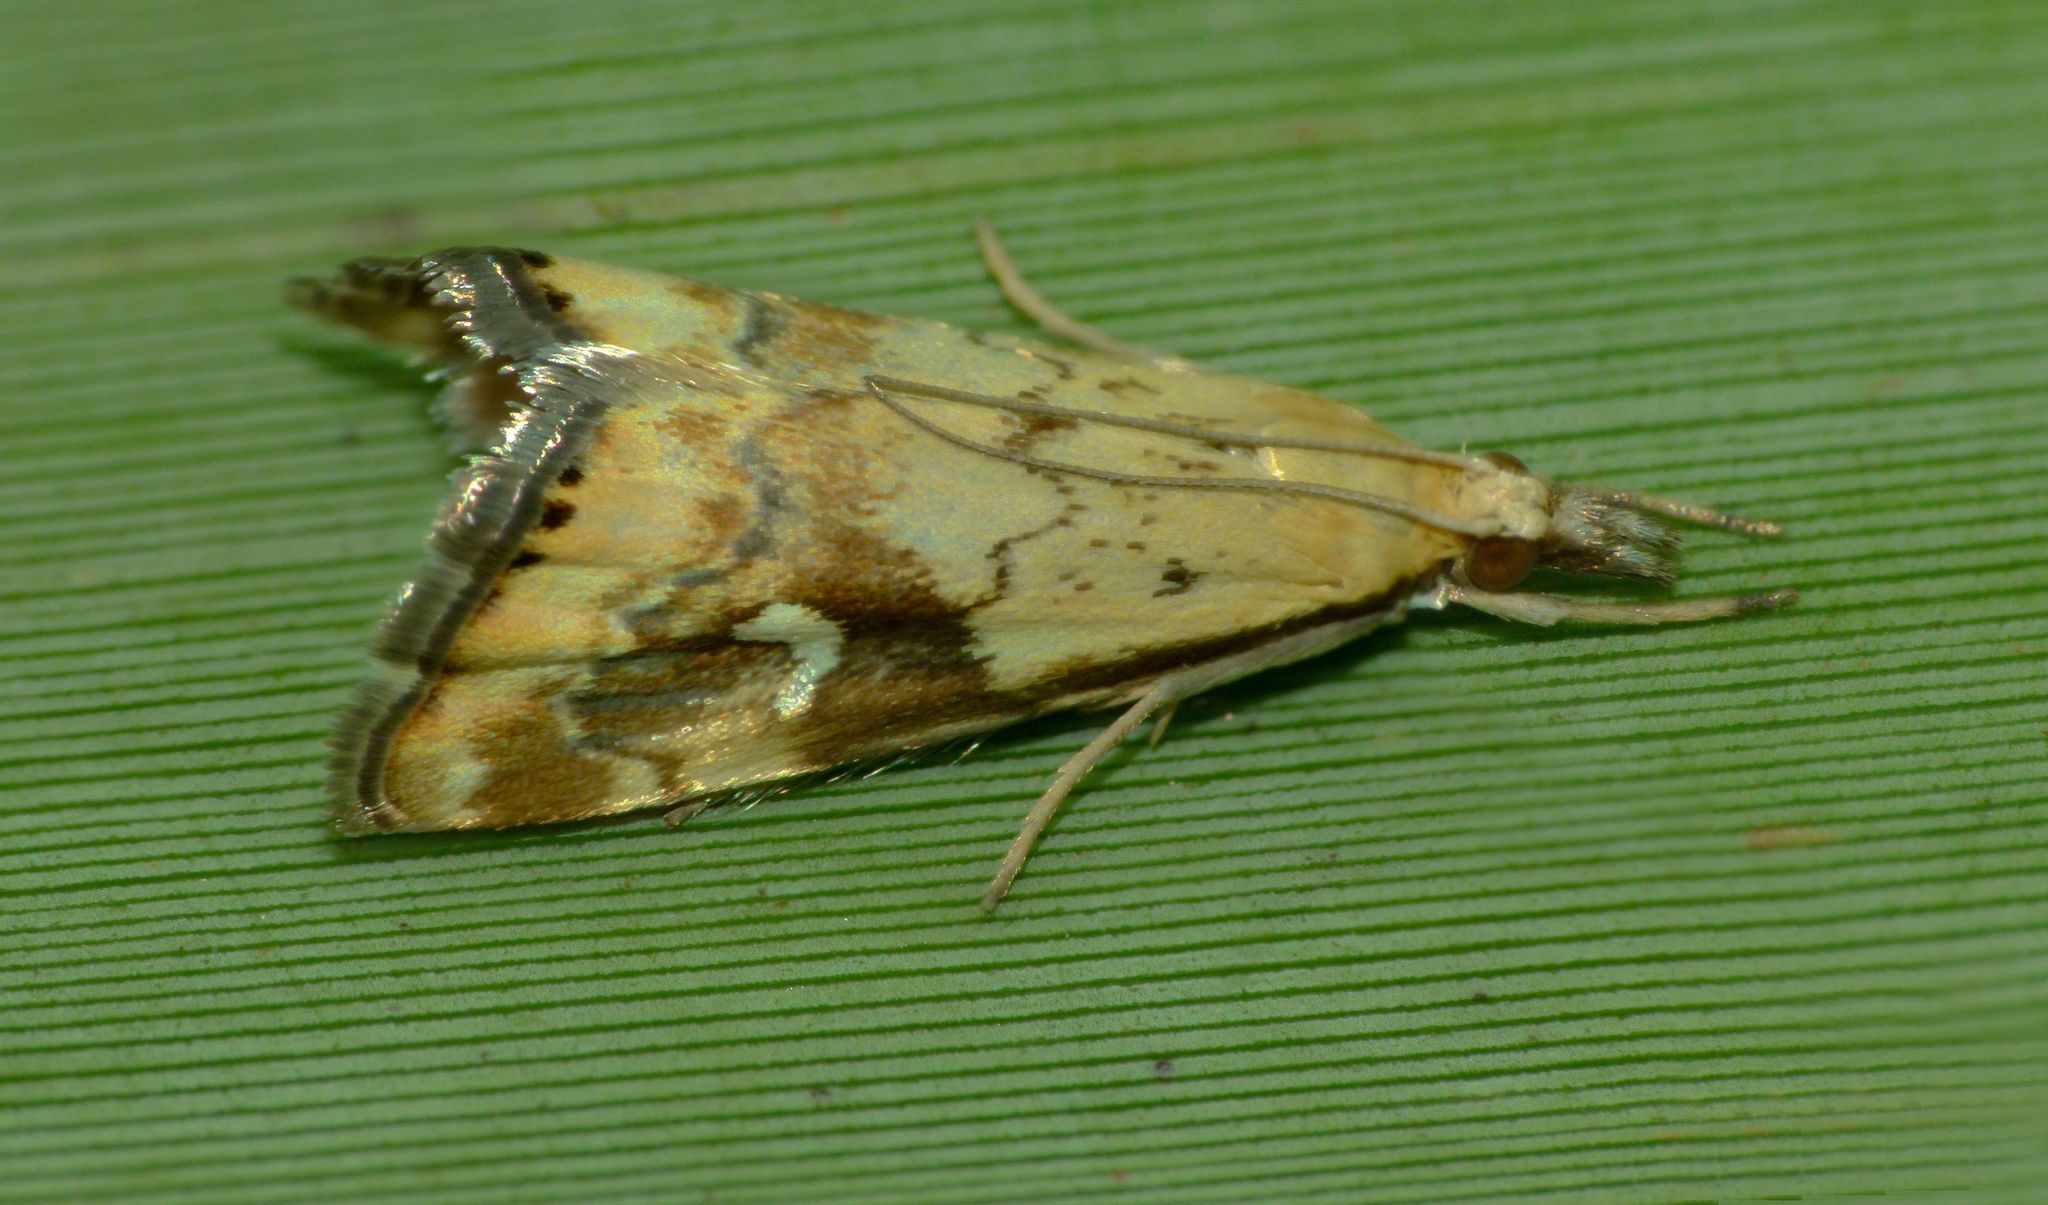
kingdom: Animalia
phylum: Arthropoda
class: Insecta
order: Lepidoptera
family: Crambidae
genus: Glaucocharis
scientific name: Glaucocharis lepidella
